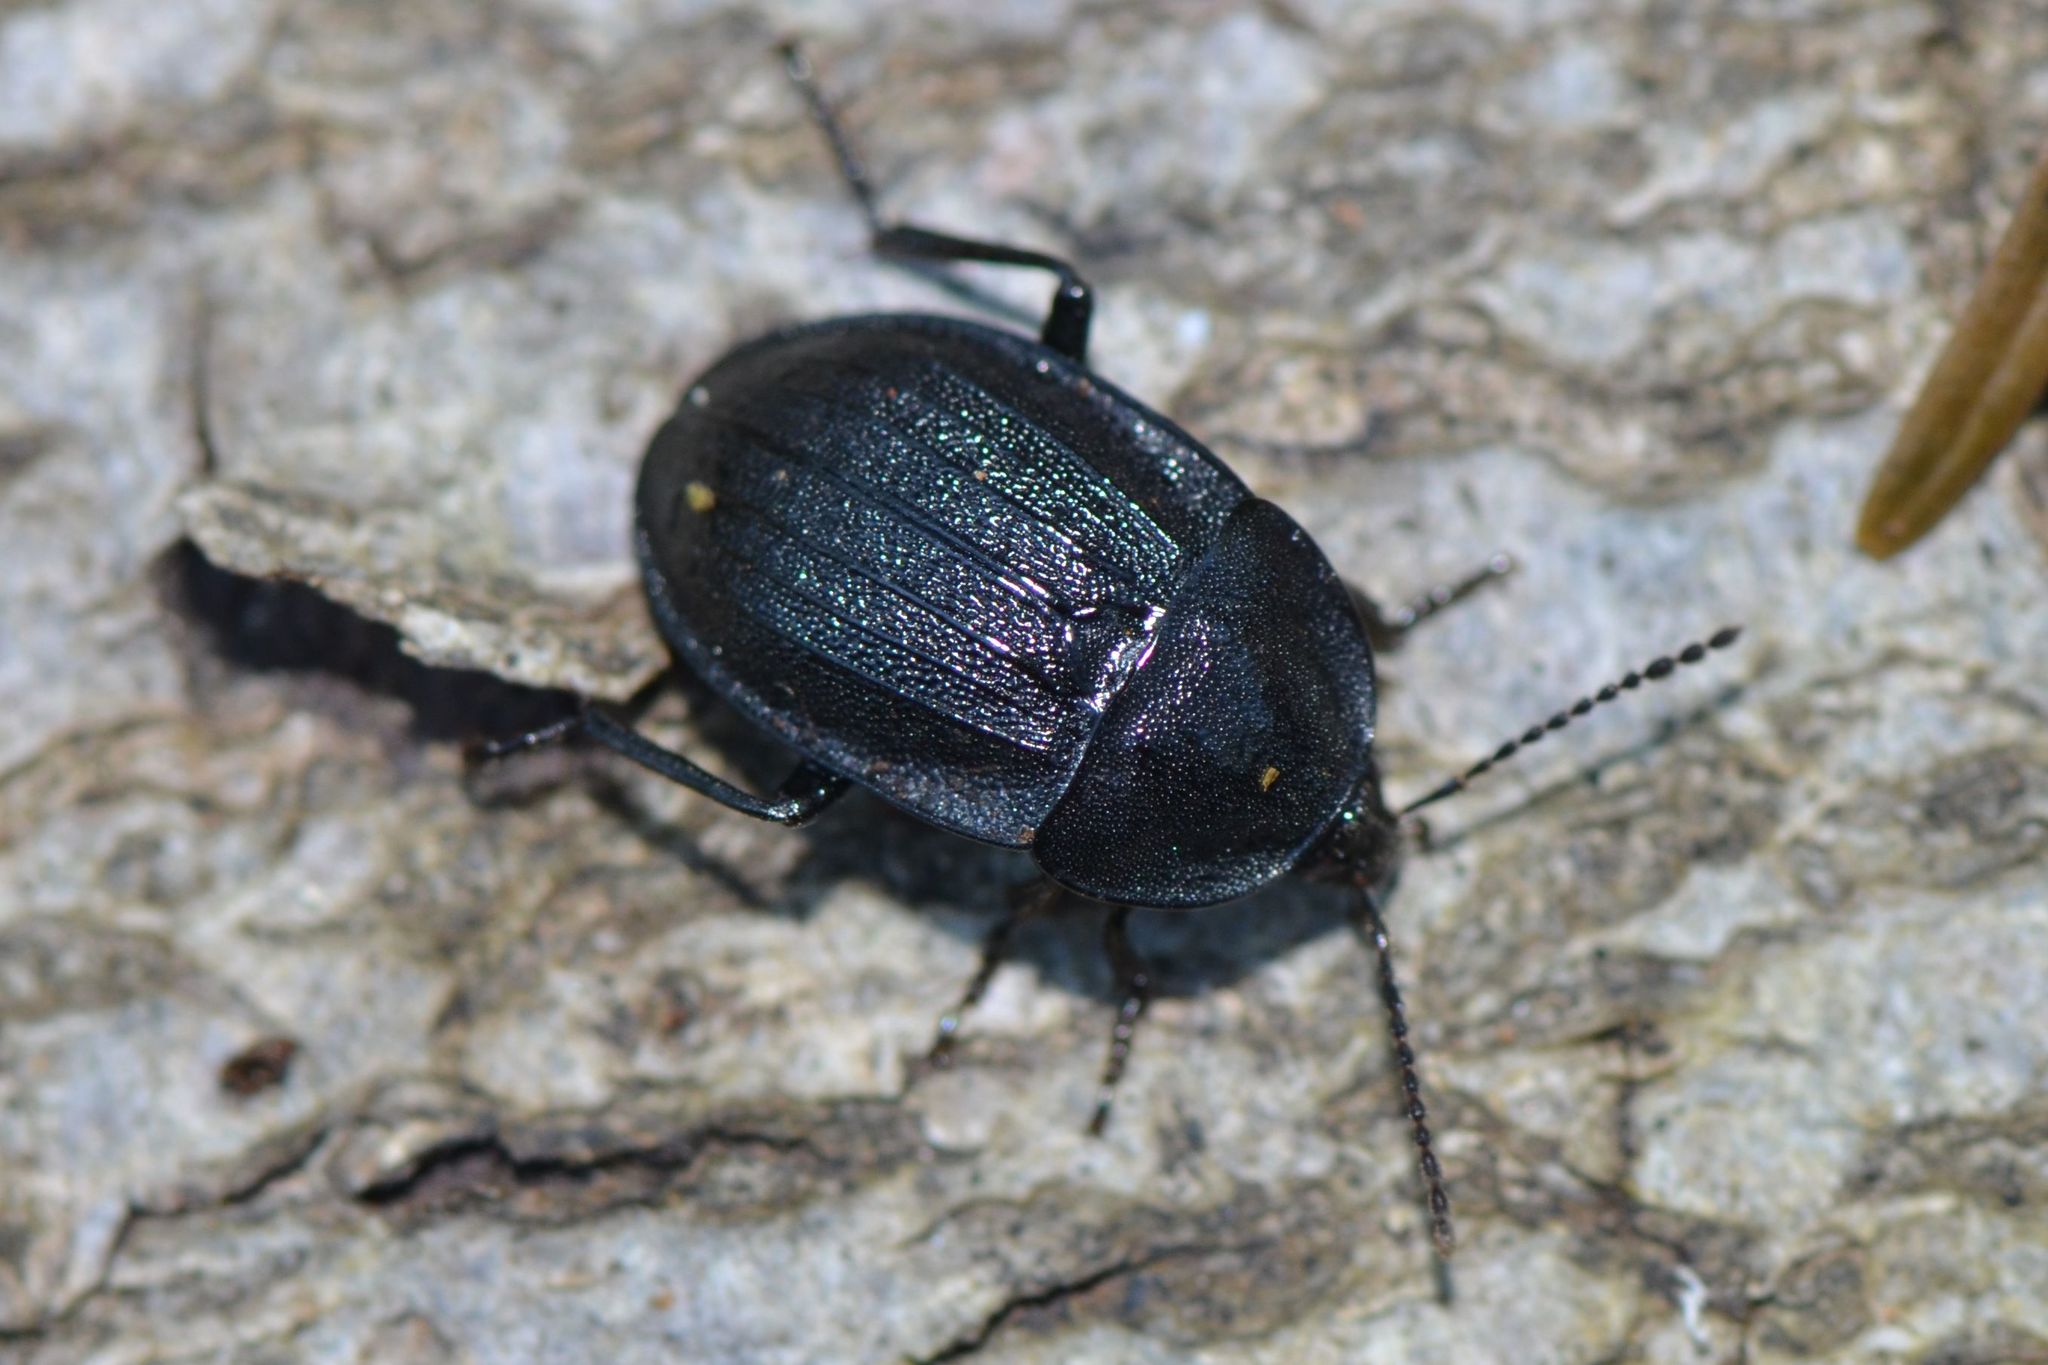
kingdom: Animalia
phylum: Arthropoda
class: Insecta
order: Coleoptera
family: Staphylinidae
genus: Silpha
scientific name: Silpha atrata
